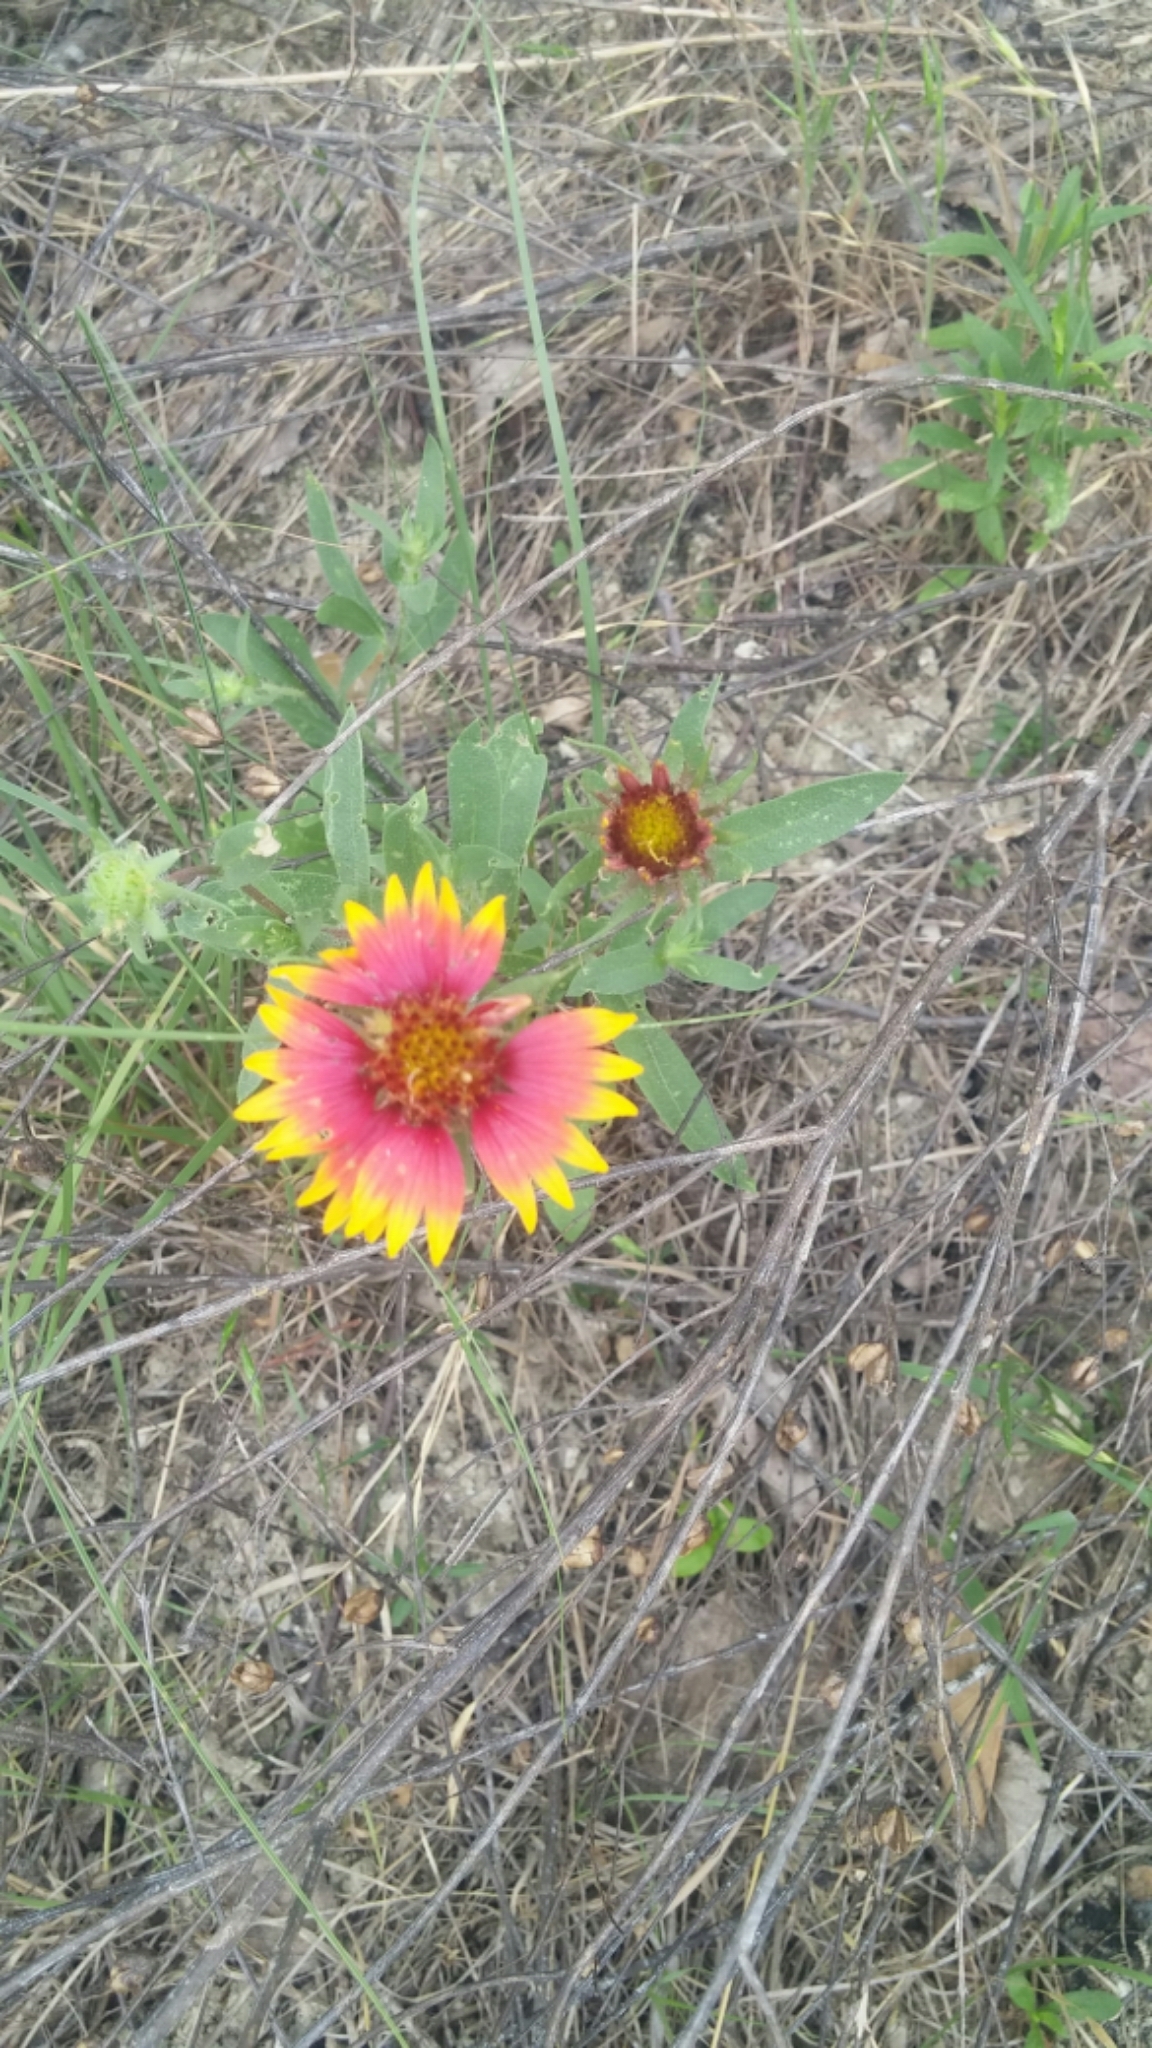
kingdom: Plantae
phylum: Tracheophyta
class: Magnoliopsida
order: Asterales
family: Asteraceae
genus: Gaillardia
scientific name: Gaillardia pulchella
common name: Firewheel
